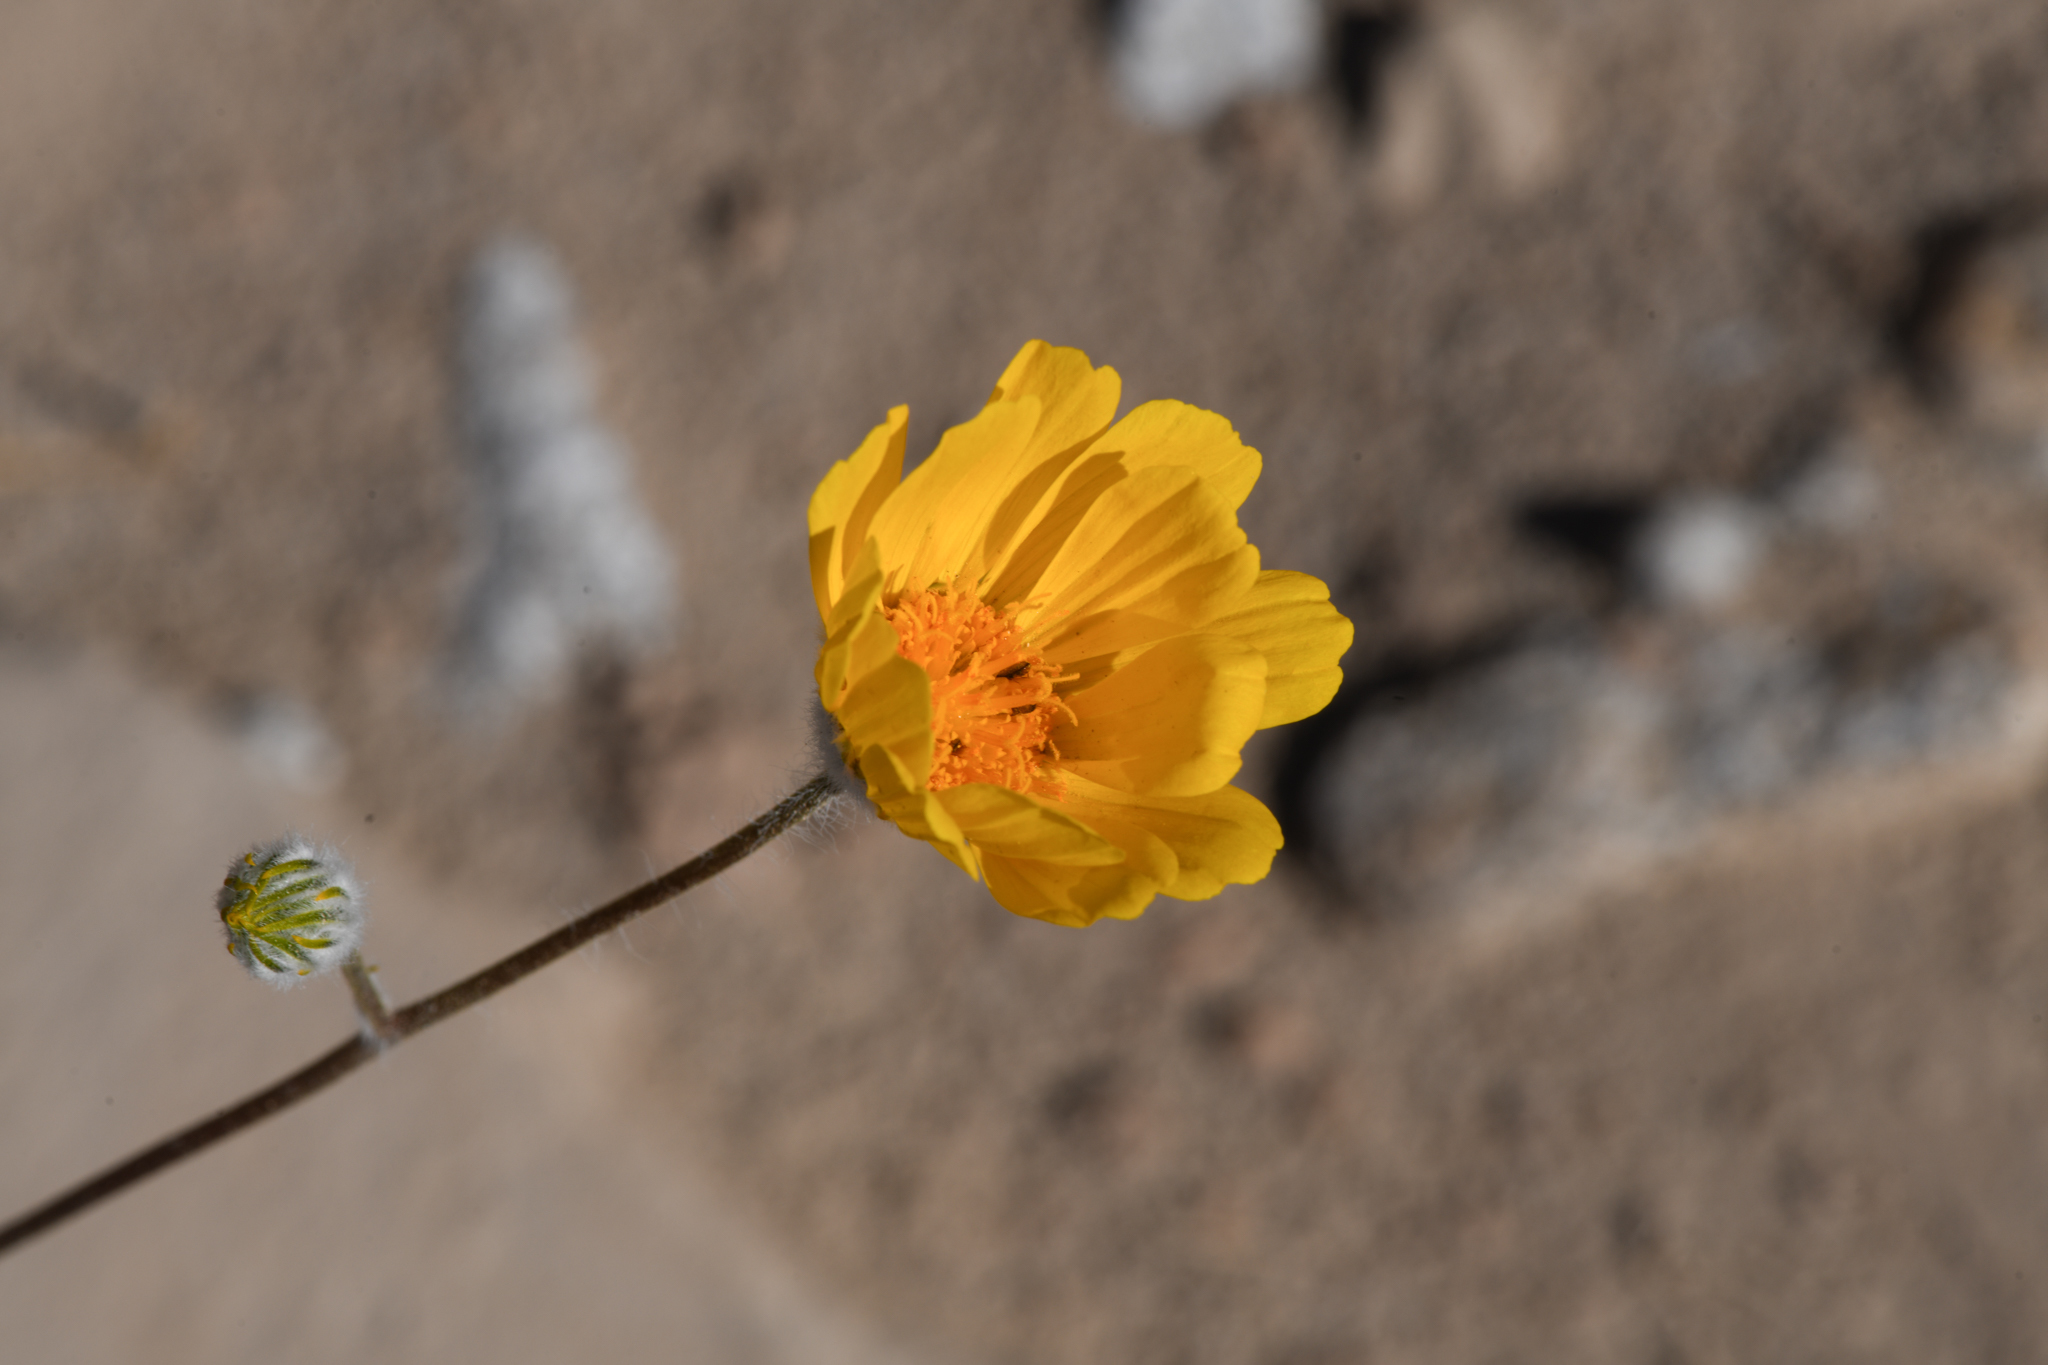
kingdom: Plantae
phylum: Tracheophyta
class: Magnoliopsida
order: Asterales
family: Asteraceae
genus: Geraea
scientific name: Geraea canescens
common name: Desert-gold
